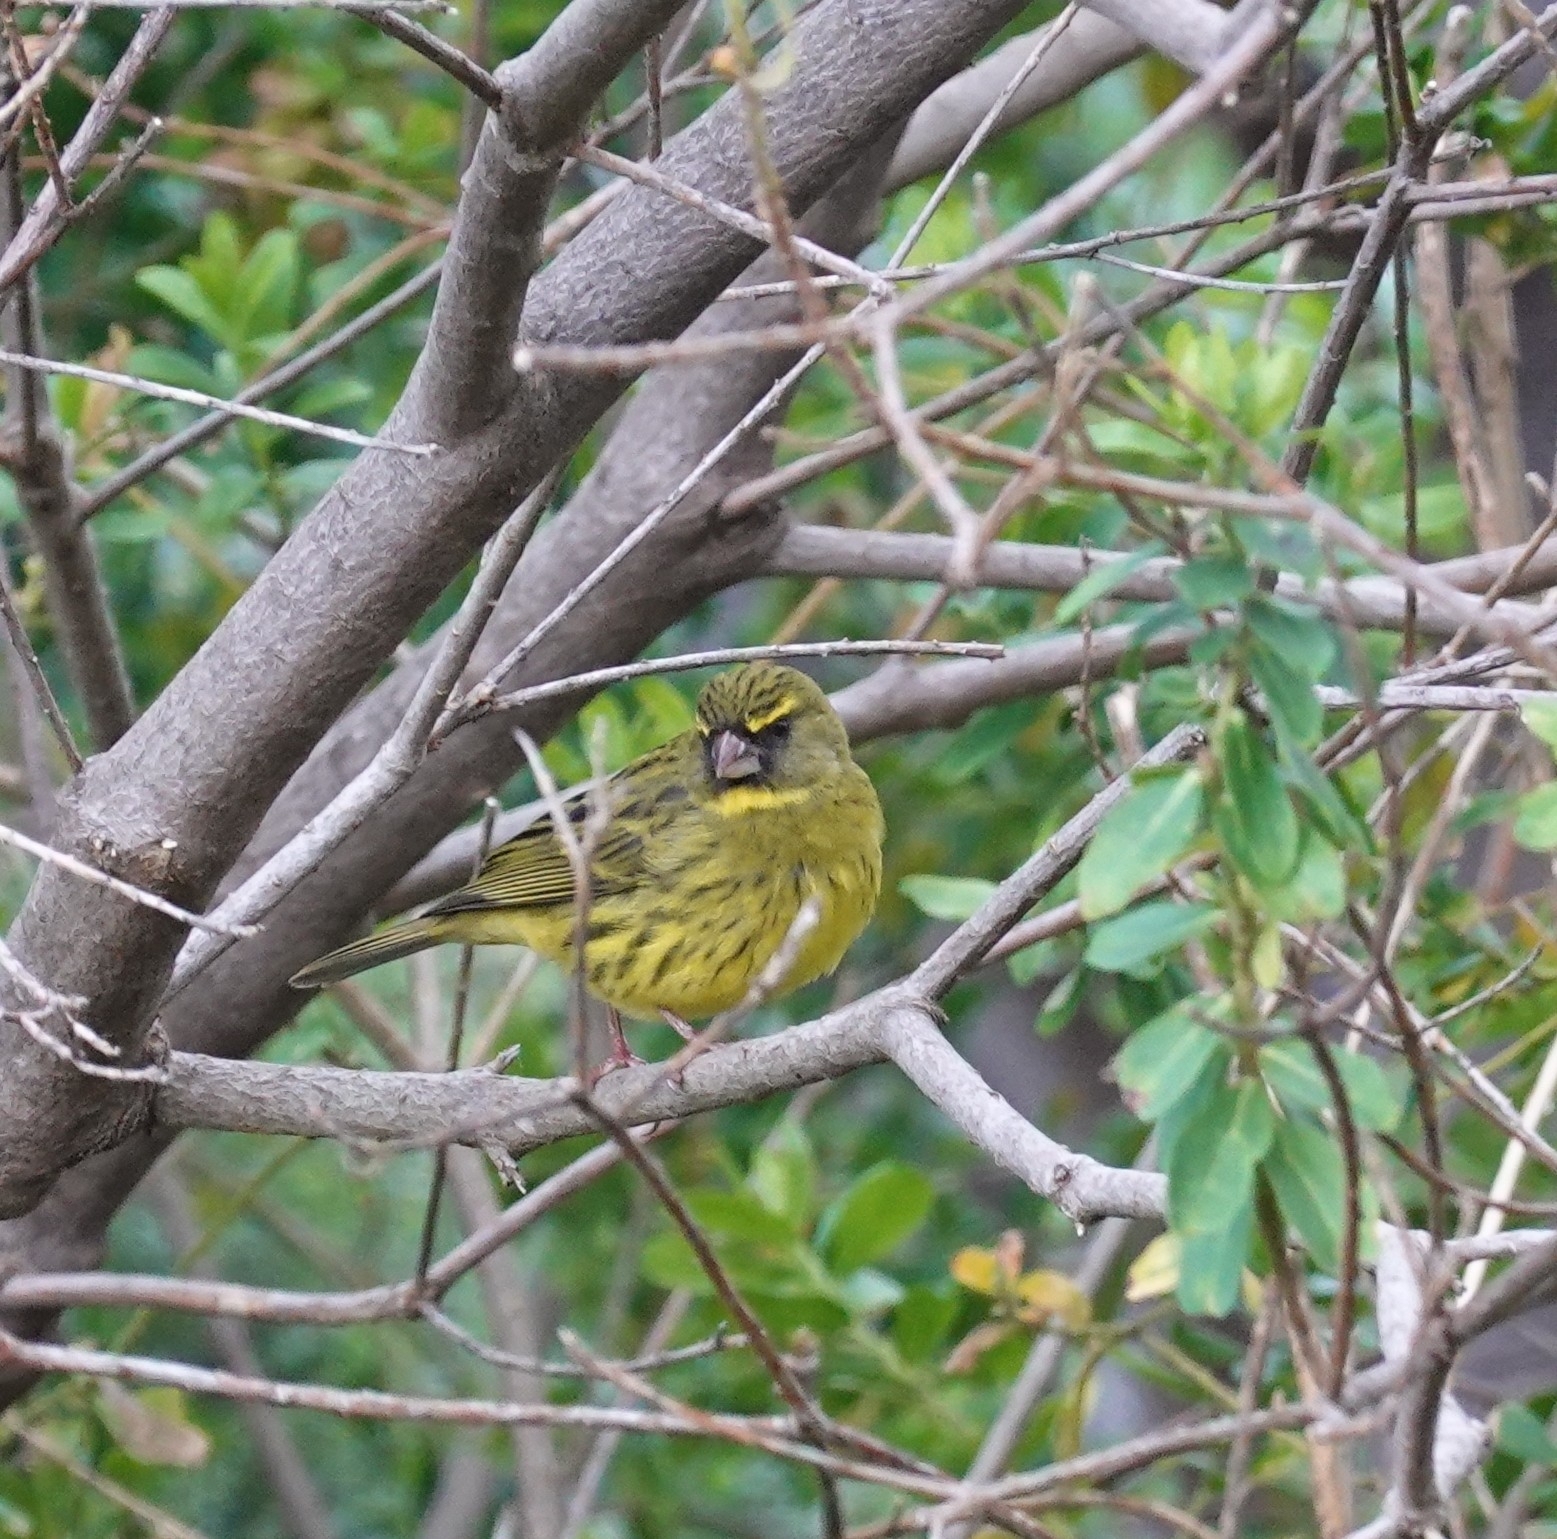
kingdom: Animalia
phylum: Chordata
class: Aves
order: Passeriformes
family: Fringillidae
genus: Crithagra
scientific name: Crithagra scotops
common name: Forest canary
